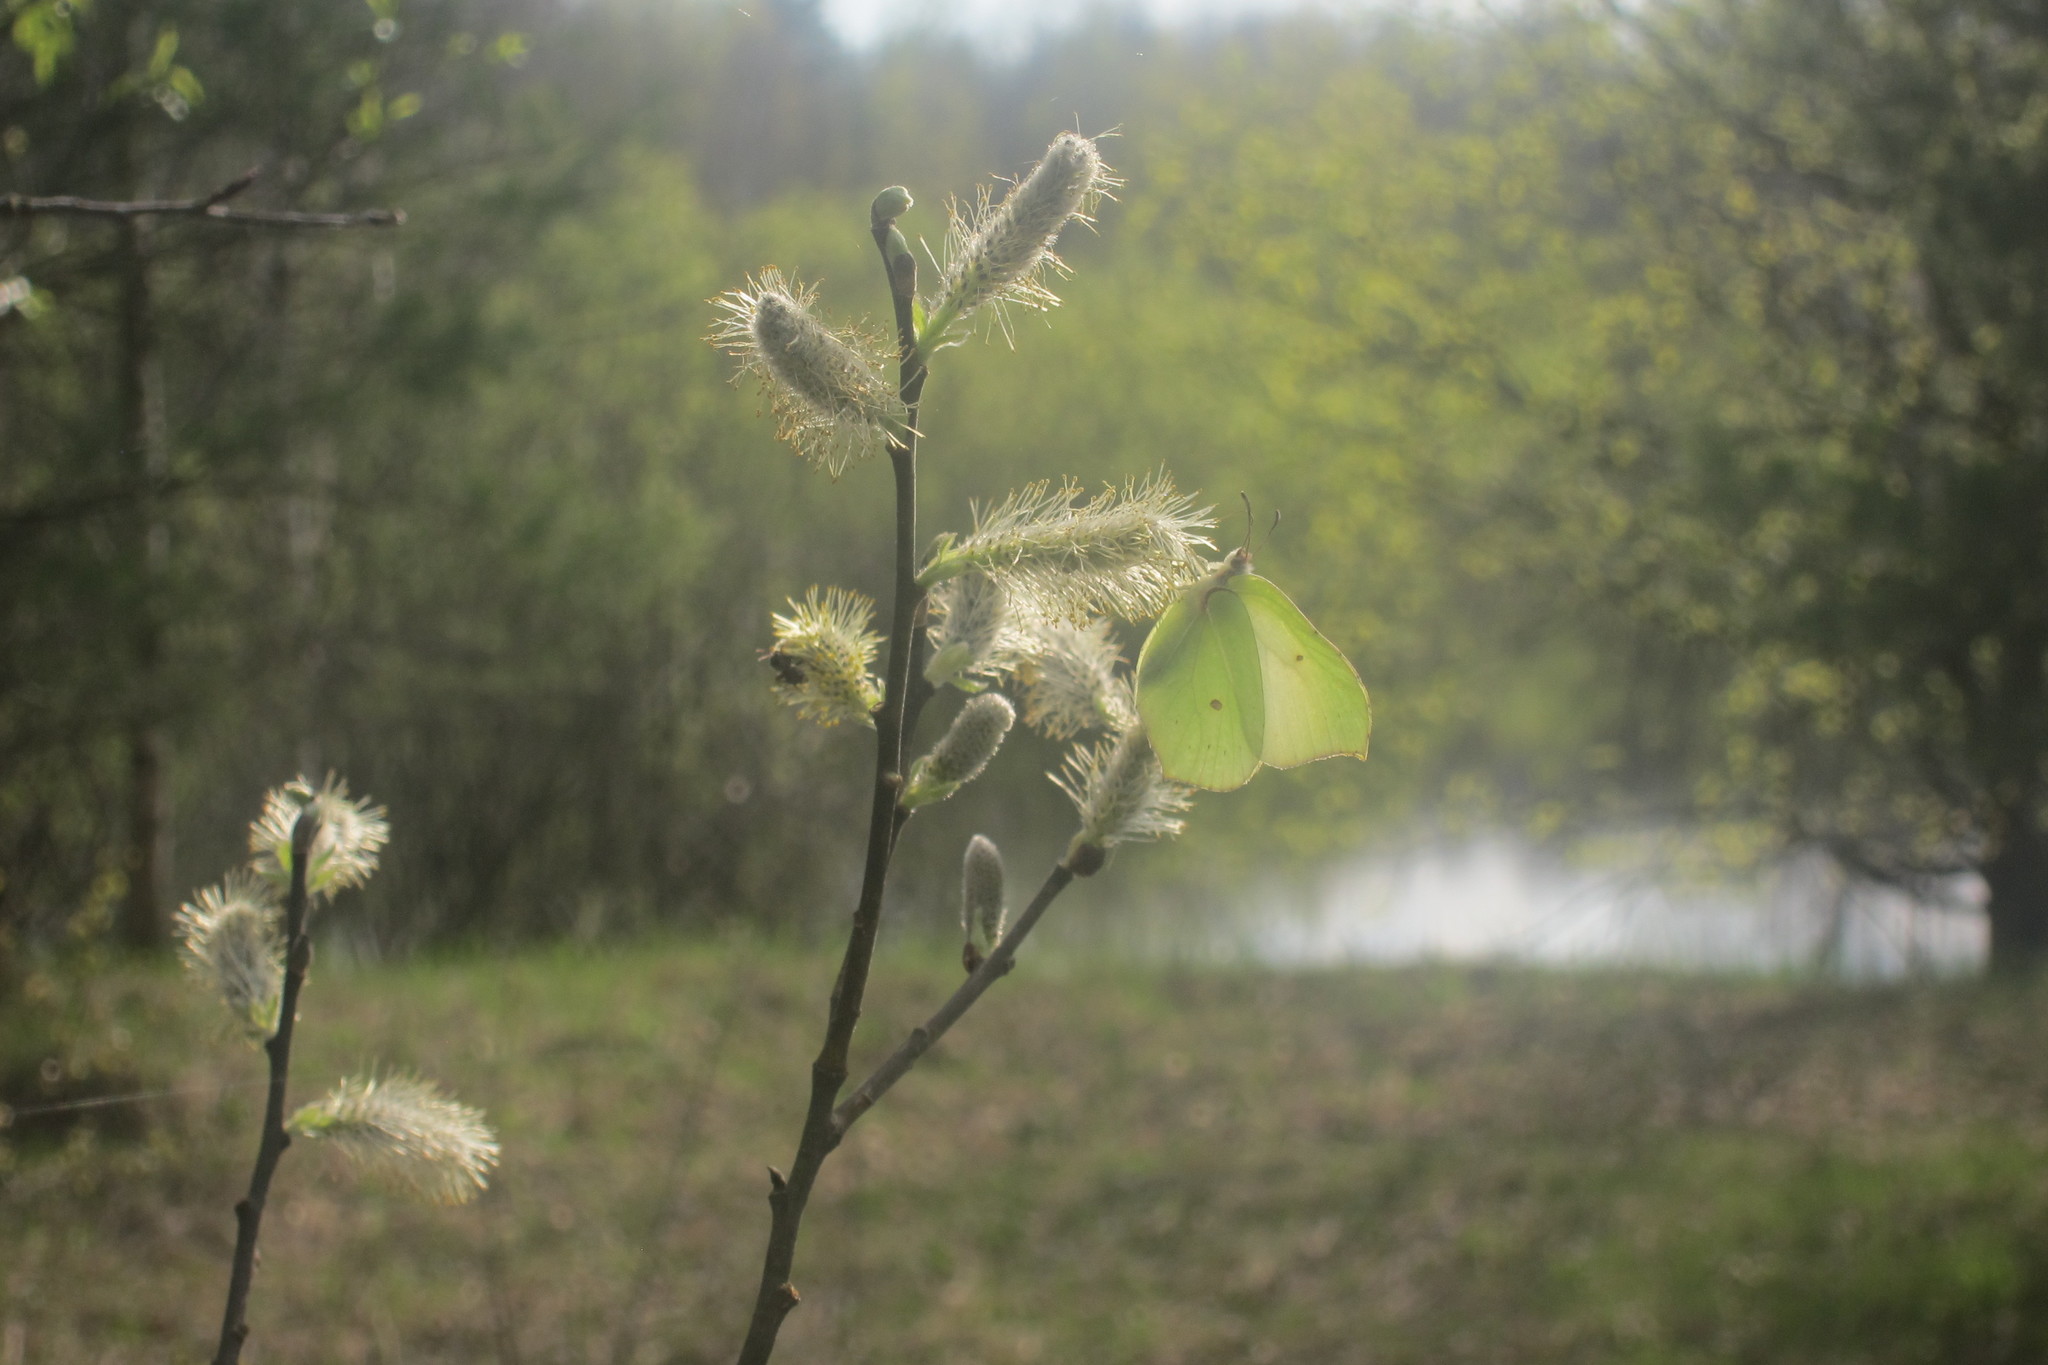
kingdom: Animalia
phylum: Arthropoda
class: Insecta
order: Lepidoptera
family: Pieridae
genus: Gonepteryx
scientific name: Gonepteryx rhamni
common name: Brimstone
